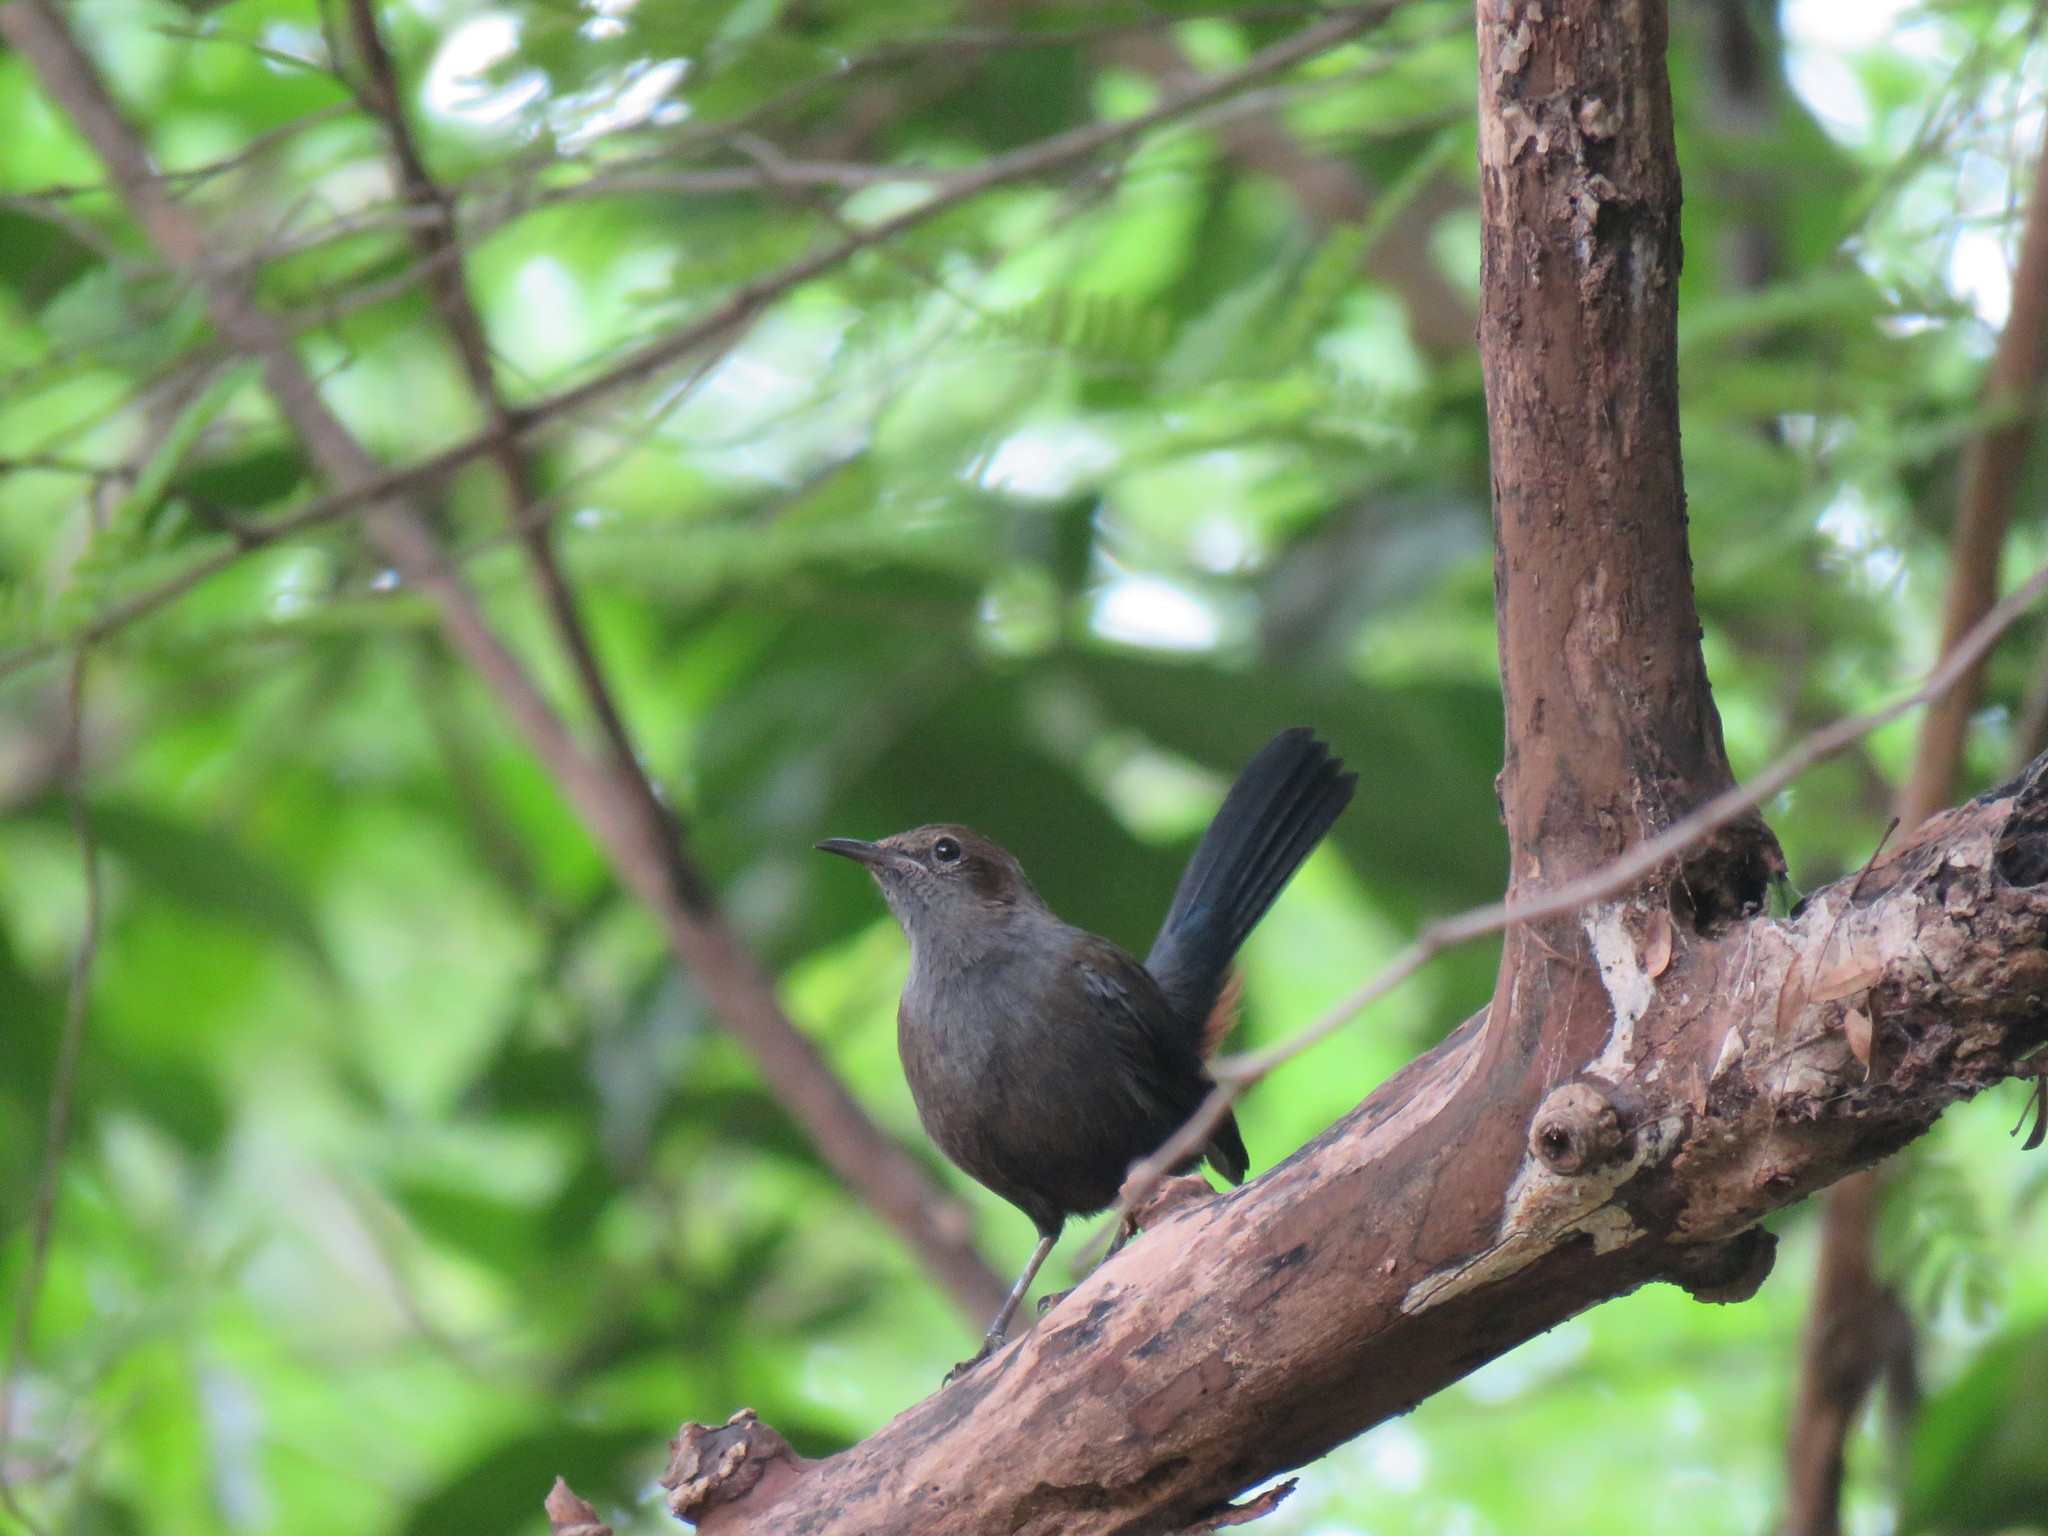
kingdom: Animalia
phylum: Chordata
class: Aves
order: Passeriformes
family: Muscicapidae
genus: Saxicoloides
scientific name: Saxicoloides fulicatus
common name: Indian robin
